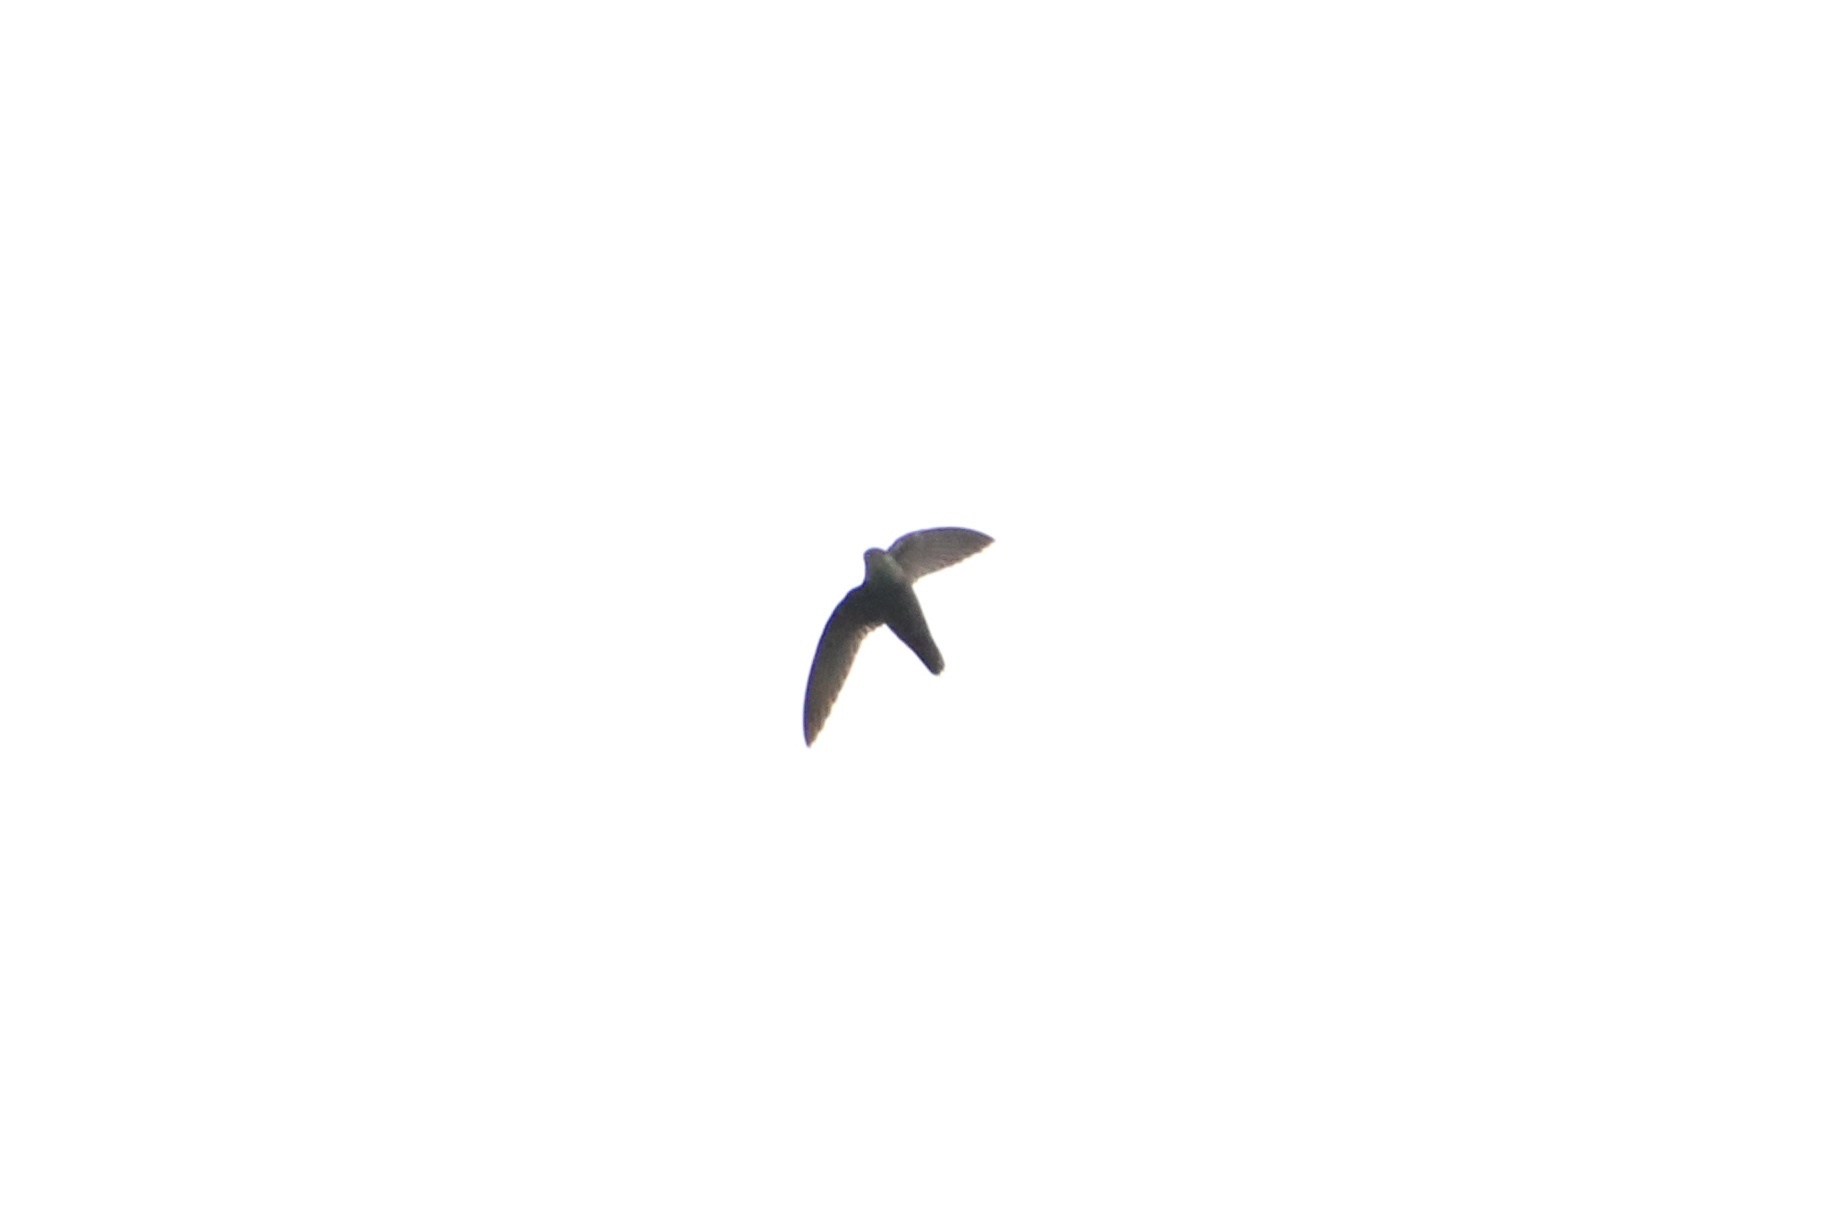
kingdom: Animalia
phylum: Chordata
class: Aves
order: Apodiformes
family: Apodidae
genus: Chaetura
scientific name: Chaetura pelagica
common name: Chimney swift
